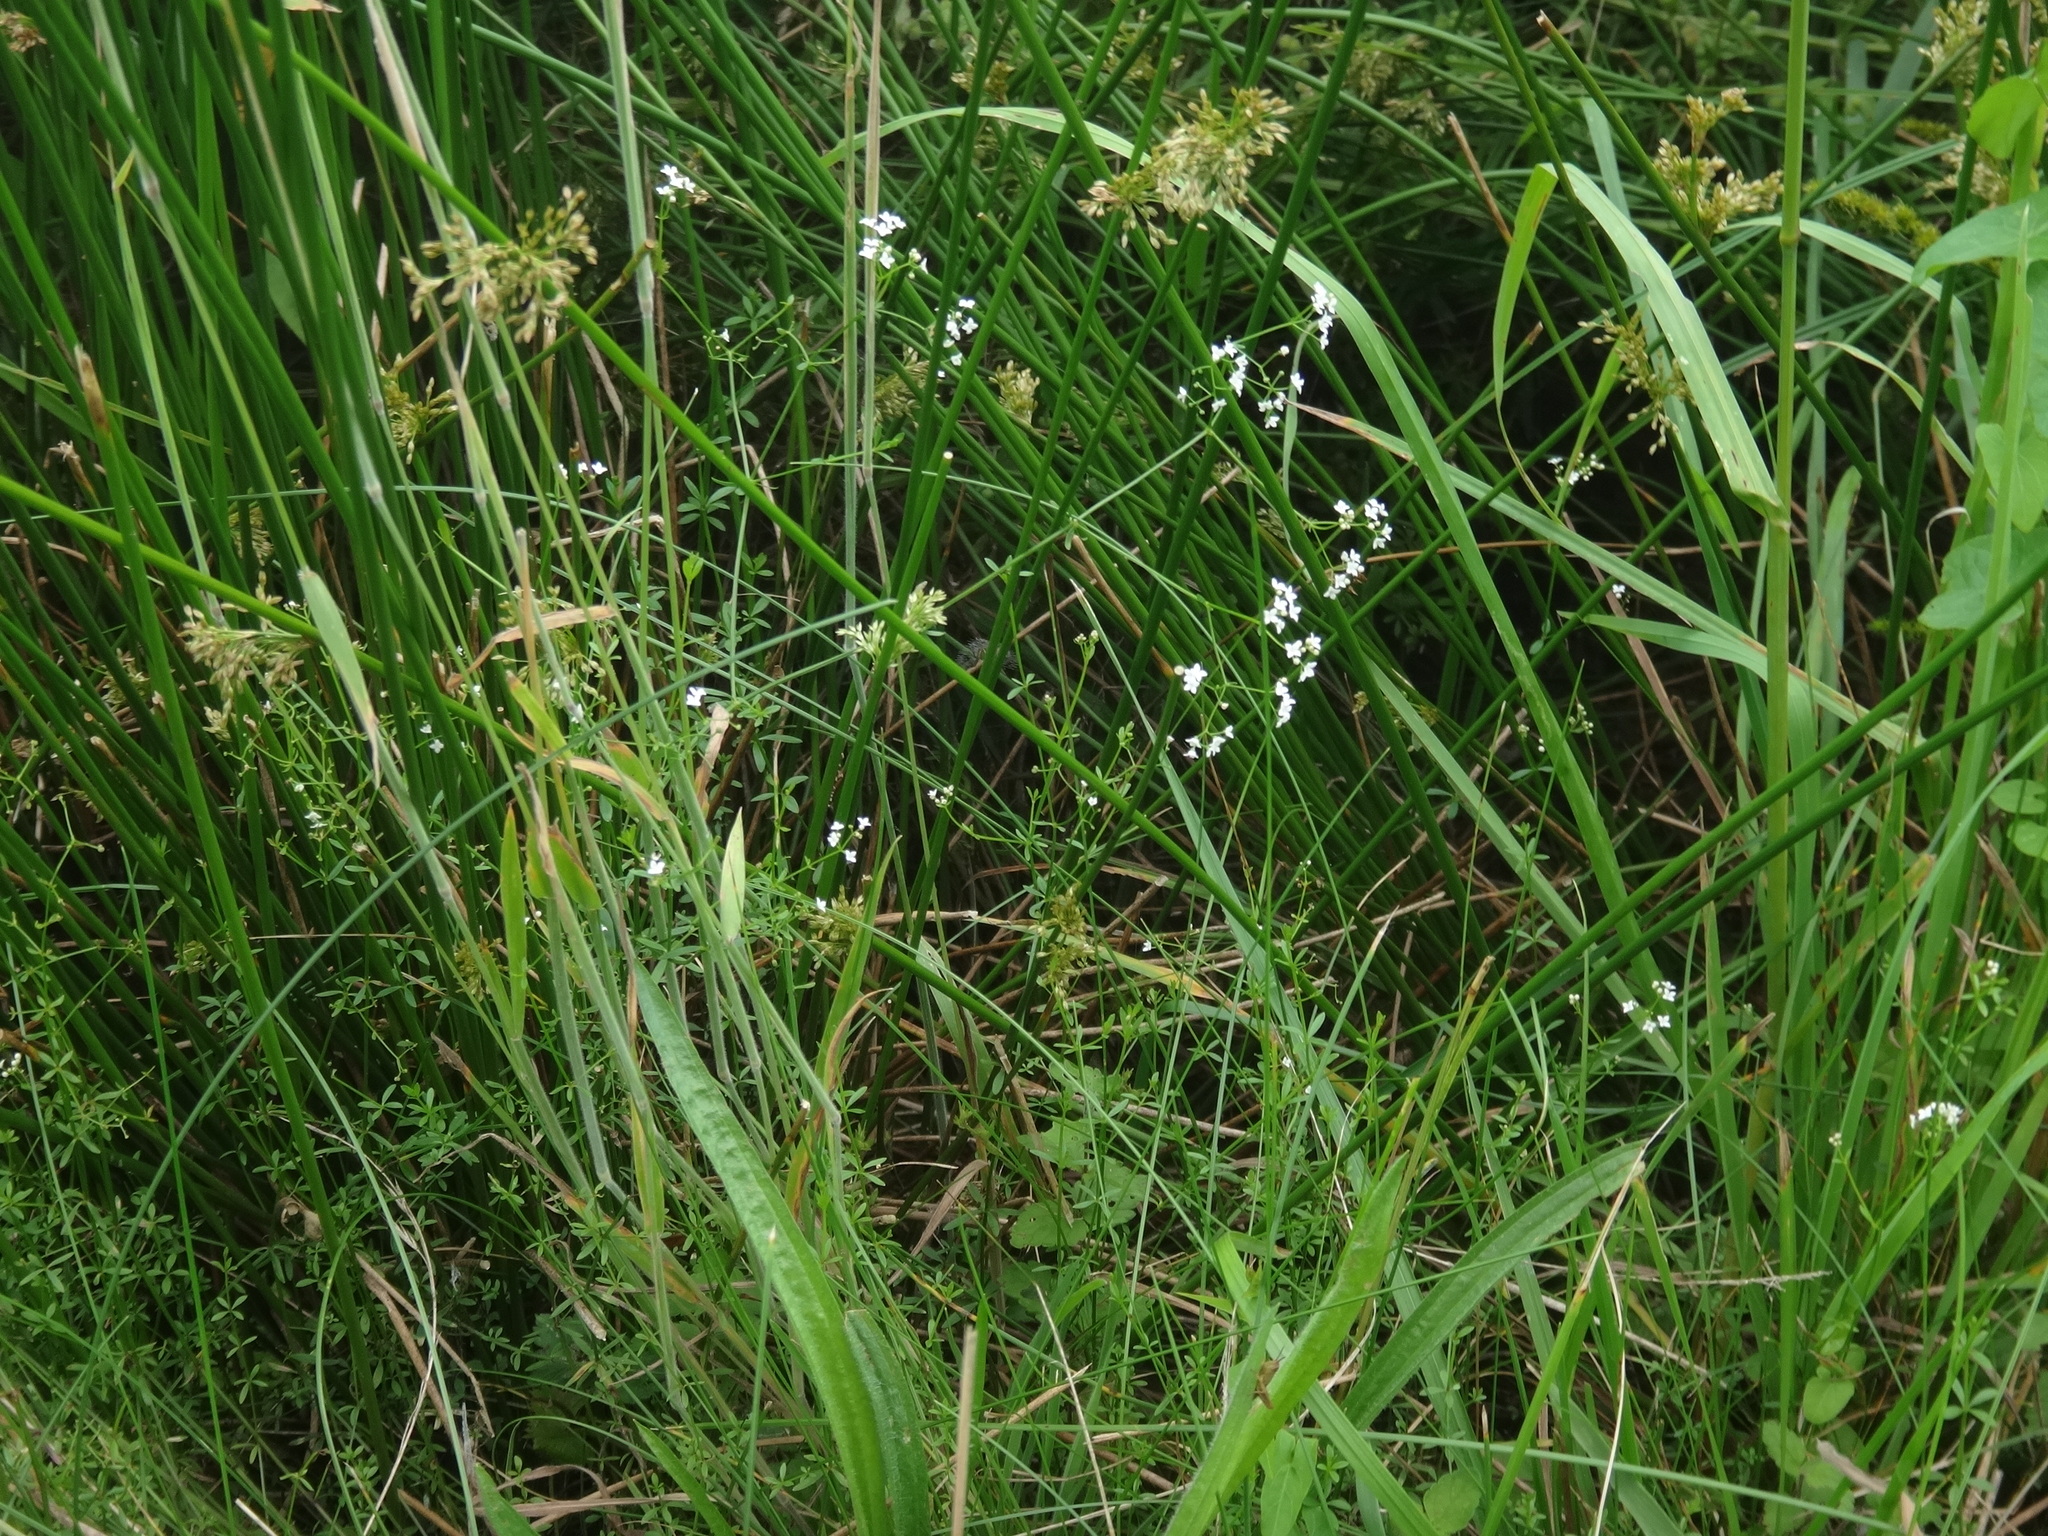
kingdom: Plantae
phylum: Tracheophyta
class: Magnoliopsida
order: Gentianales
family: Rubiaceae
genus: Galium
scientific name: Galium palustre
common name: Common marsh-bedstraw
